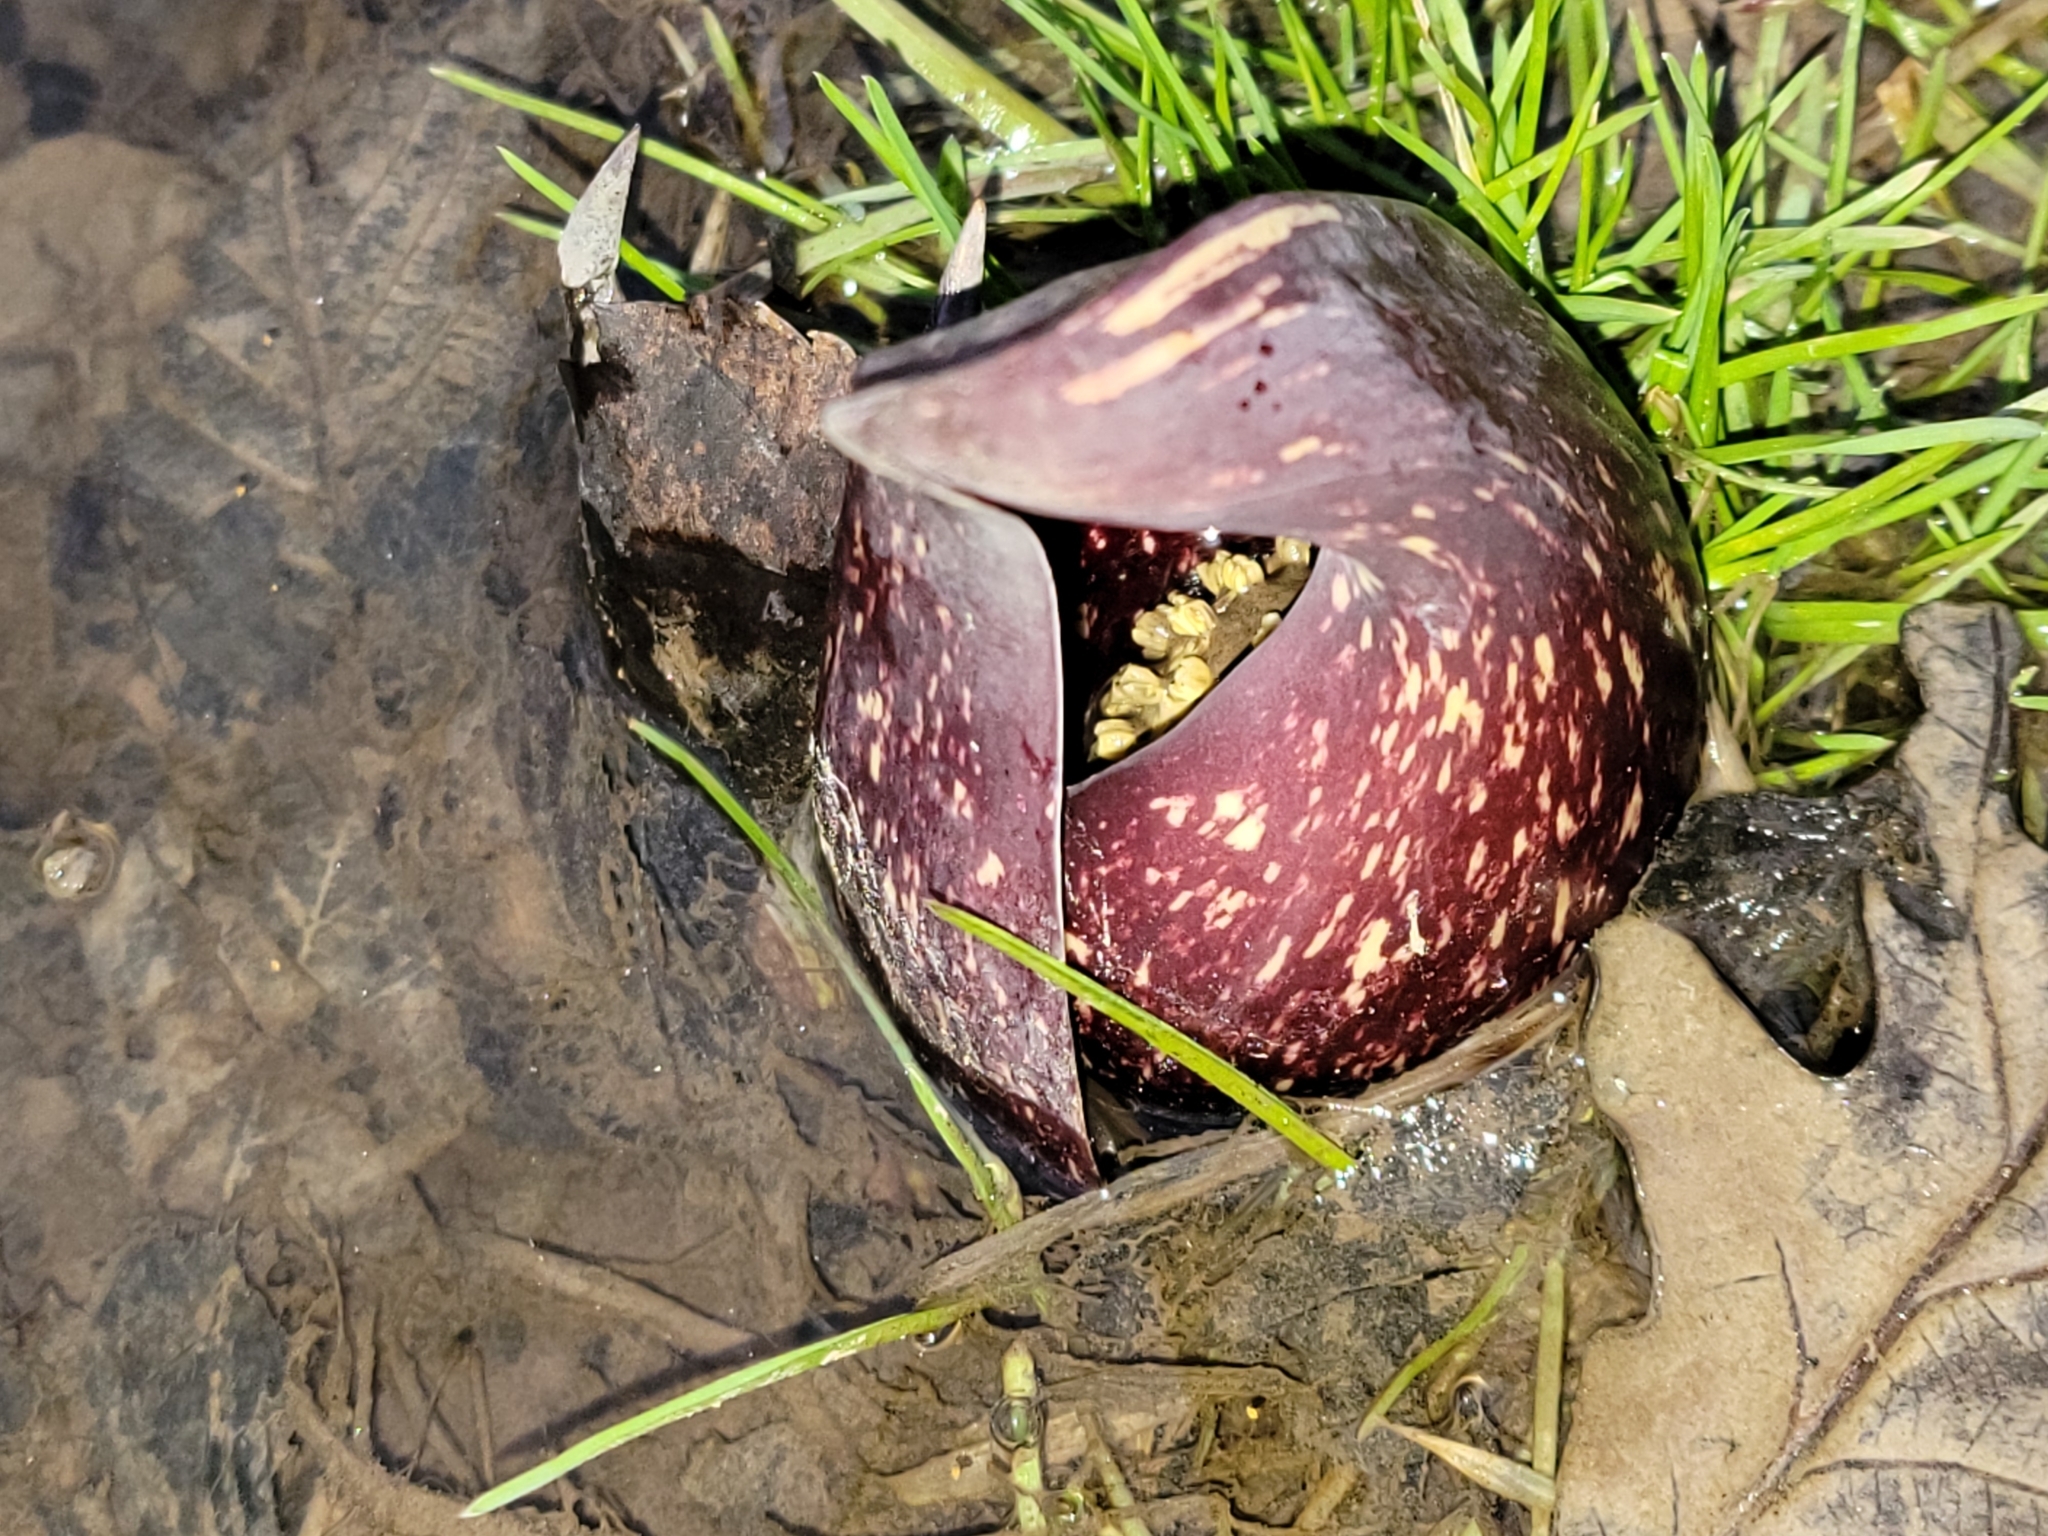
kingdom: Plantae
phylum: Tracheophyta
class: Liliopsida
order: Alismatales
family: Araceae
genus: Symplocarpus
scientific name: Symplocarpus foetidus
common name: Eastern skunk cabbage
